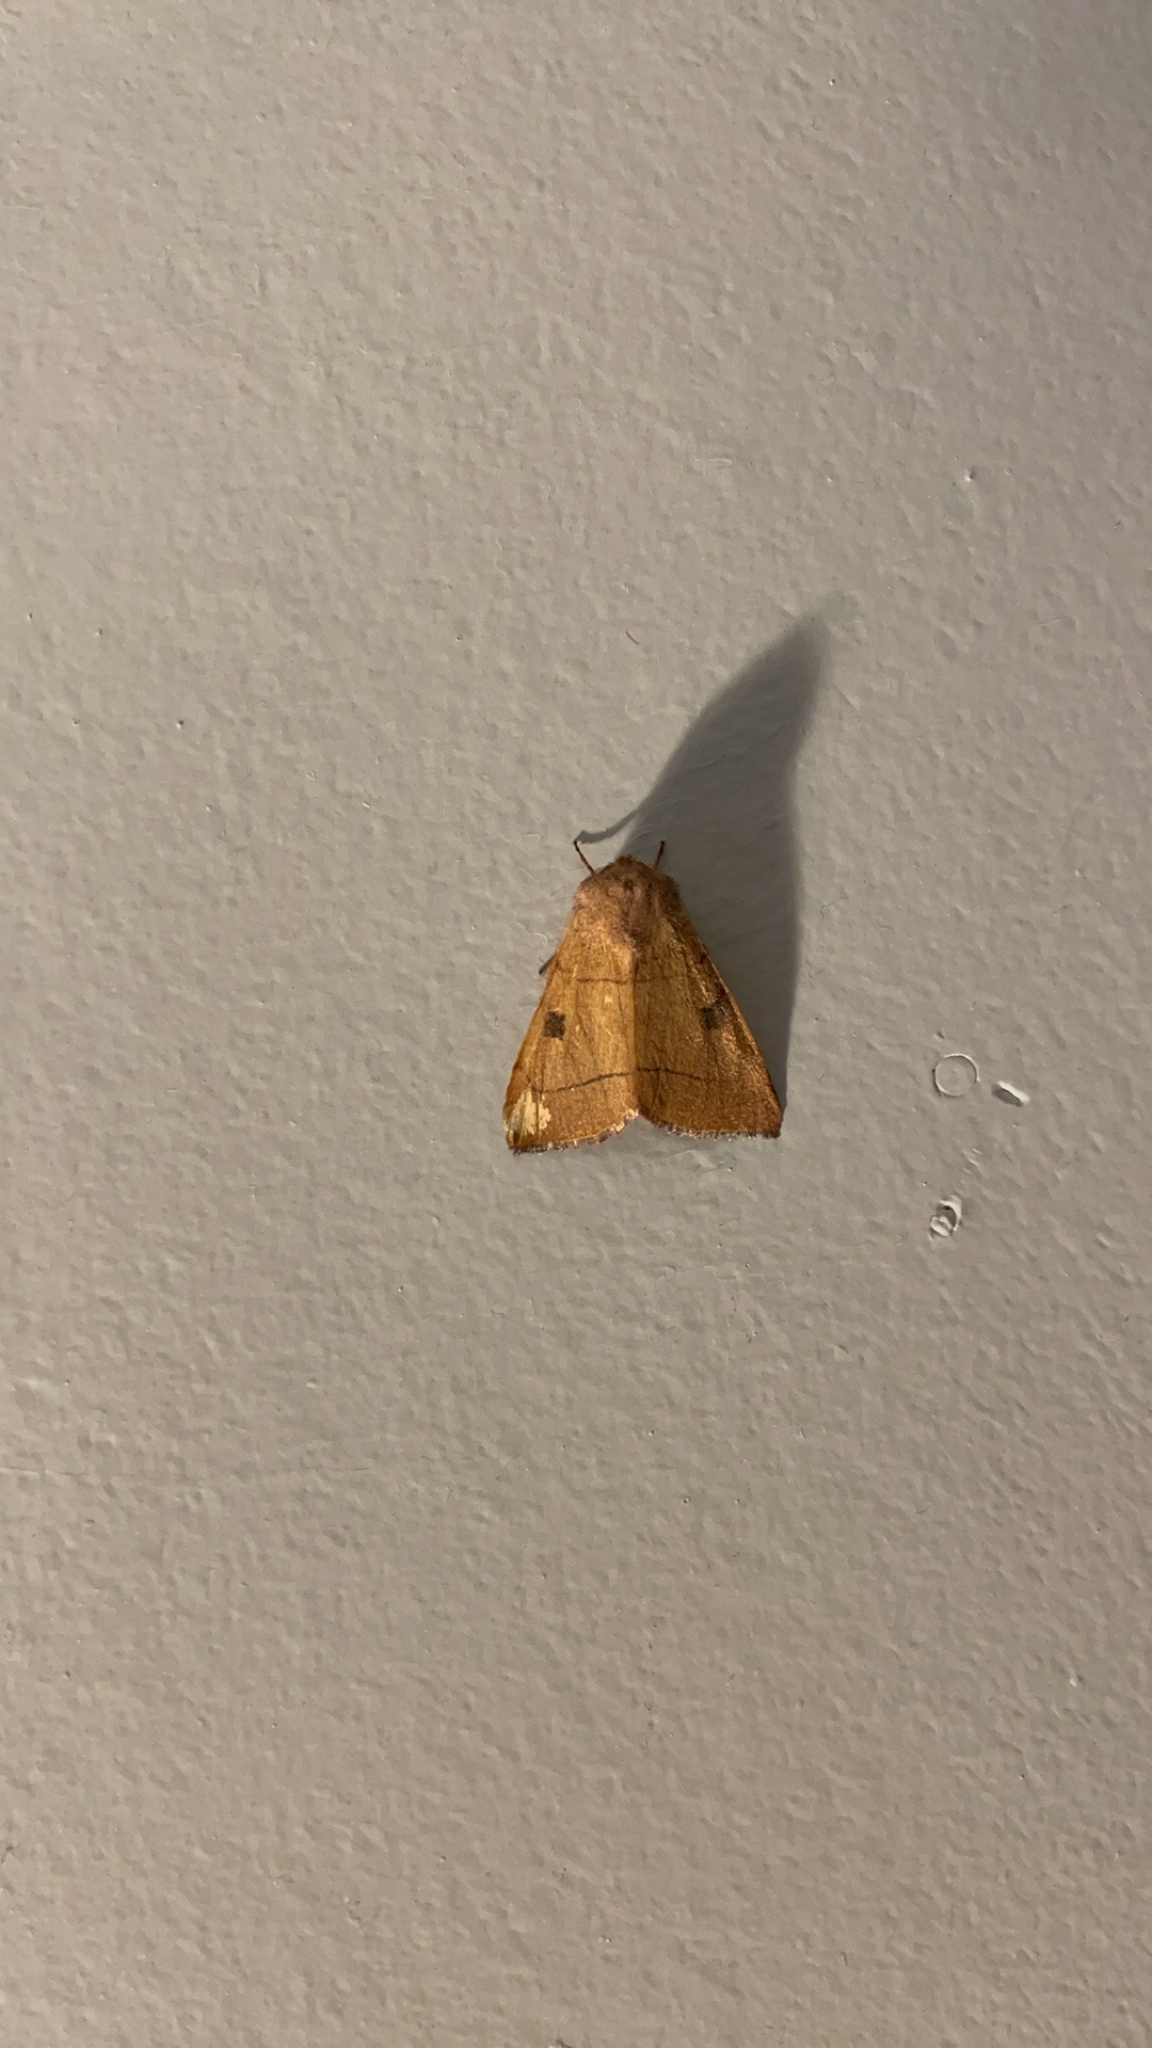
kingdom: Animalia
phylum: Arthropoda
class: Insecta
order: Lepidoptera
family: Noctuidae
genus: Choephora
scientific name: Choephora fungorum
